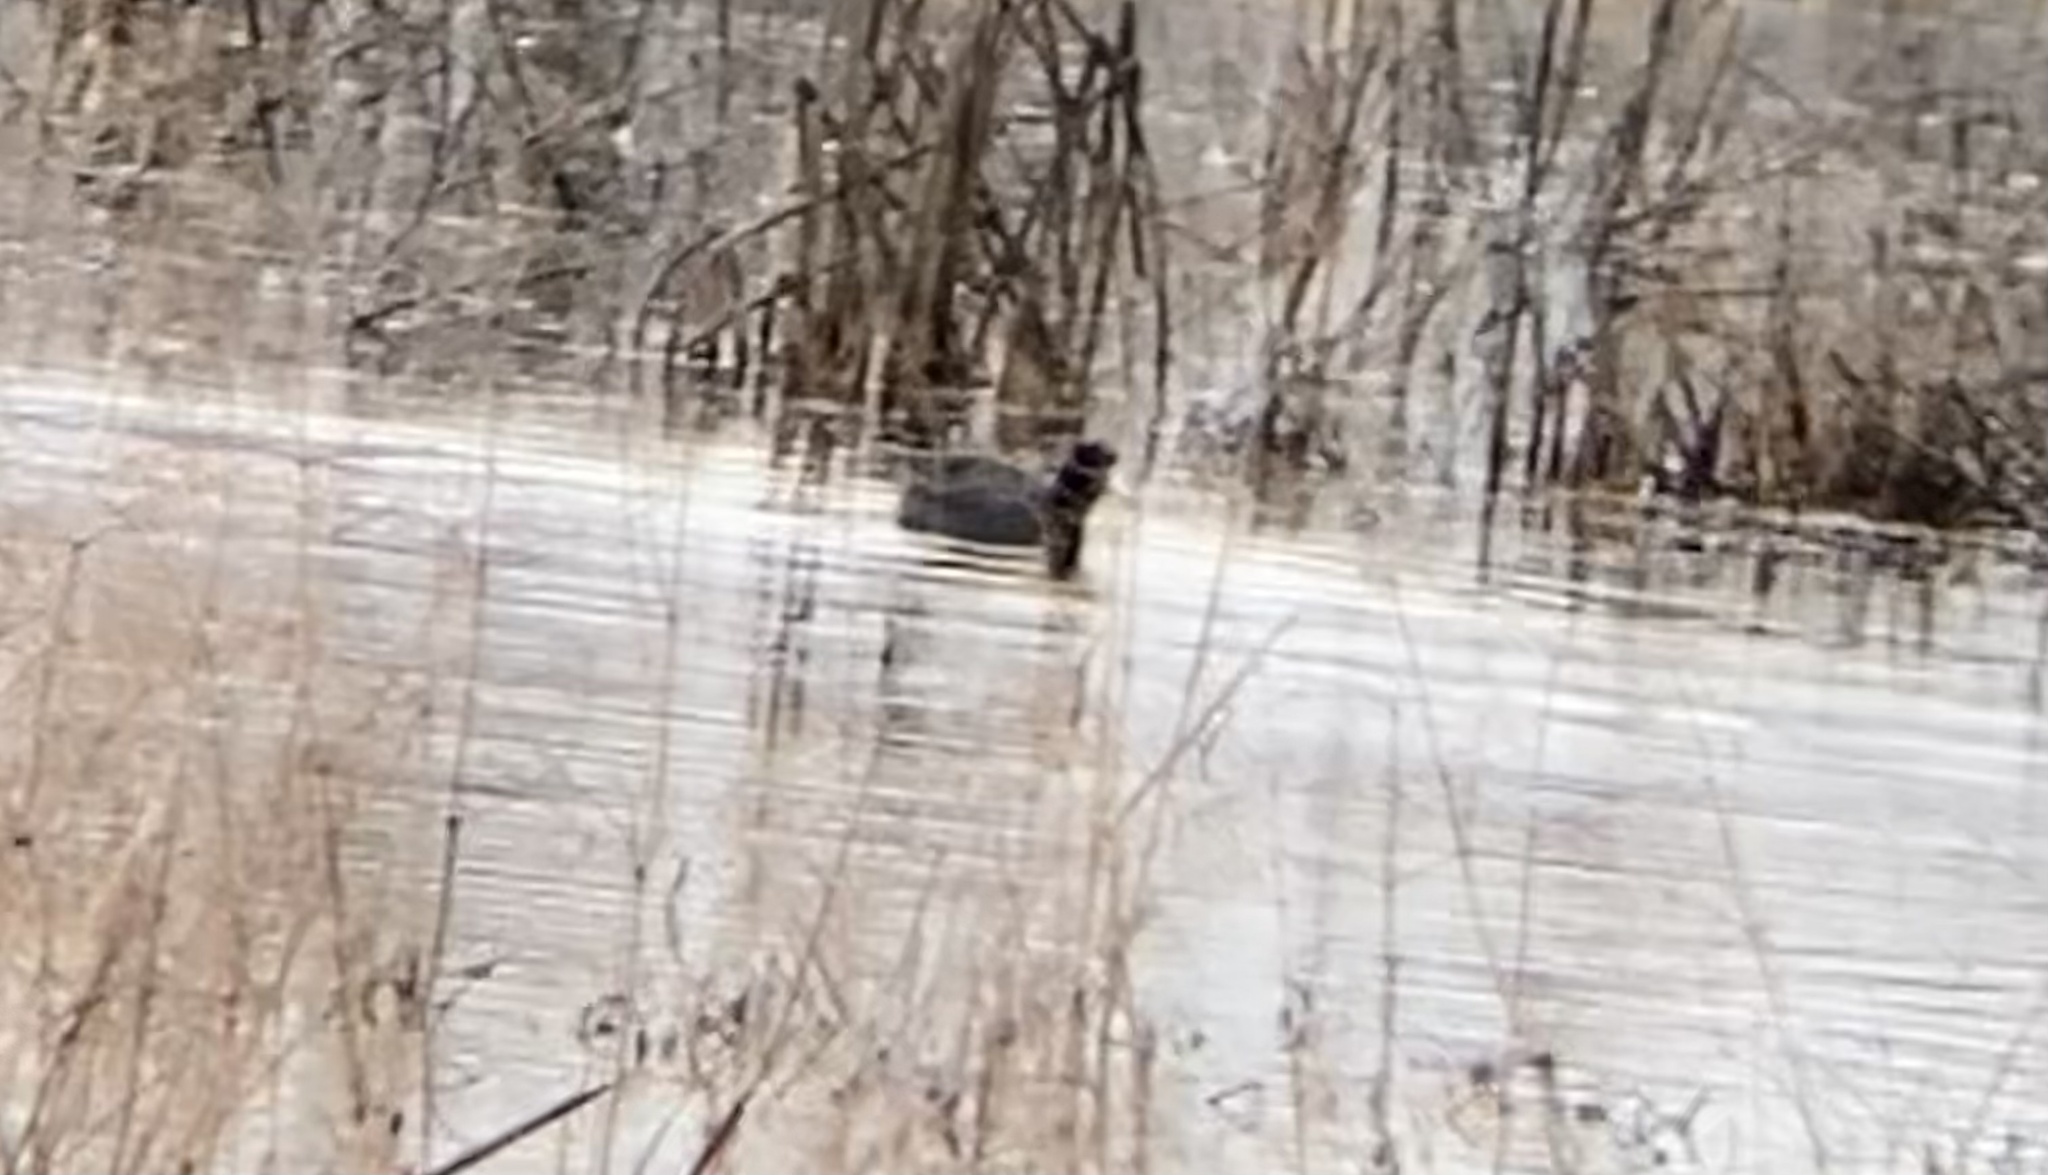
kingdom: Animalia
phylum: Chordata
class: Aves
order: Gruiformes
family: Rallidae
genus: Fulica
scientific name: Fulica americana
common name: American coot
